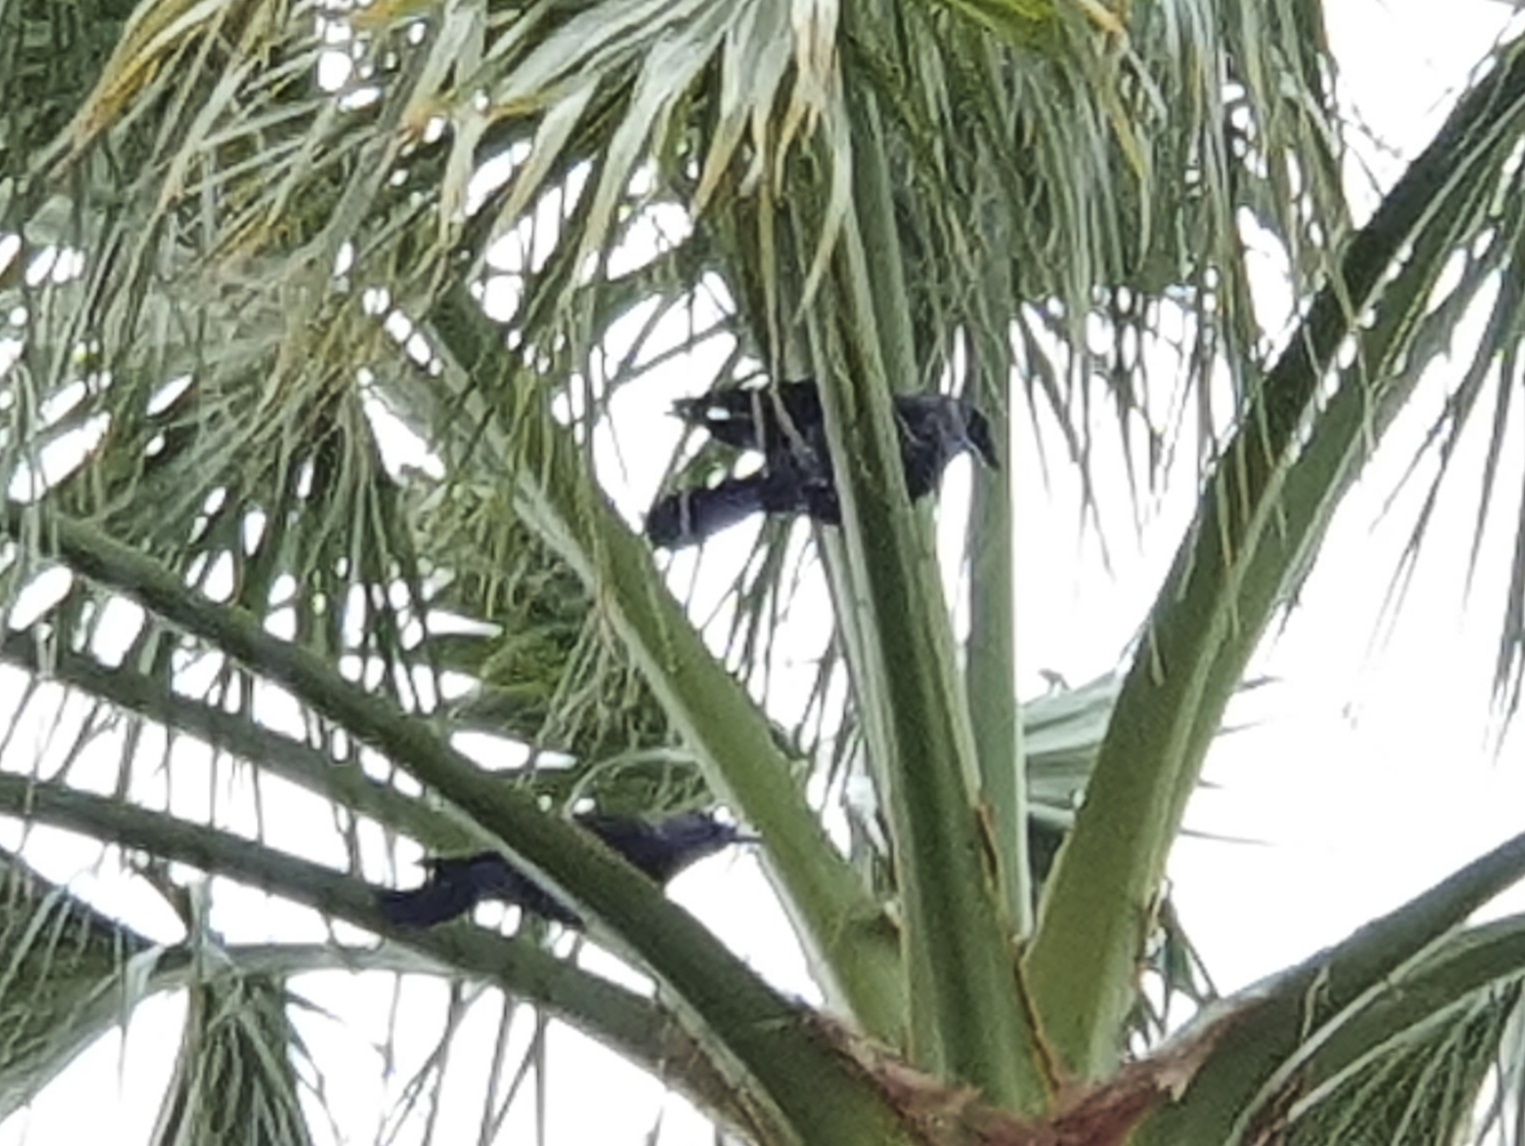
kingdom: Animalia
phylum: Chordata
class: Aves
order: Passeriformes
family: Corvidae
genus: Coloeus
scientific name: Coloeus monedula
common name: Western jackdaw
